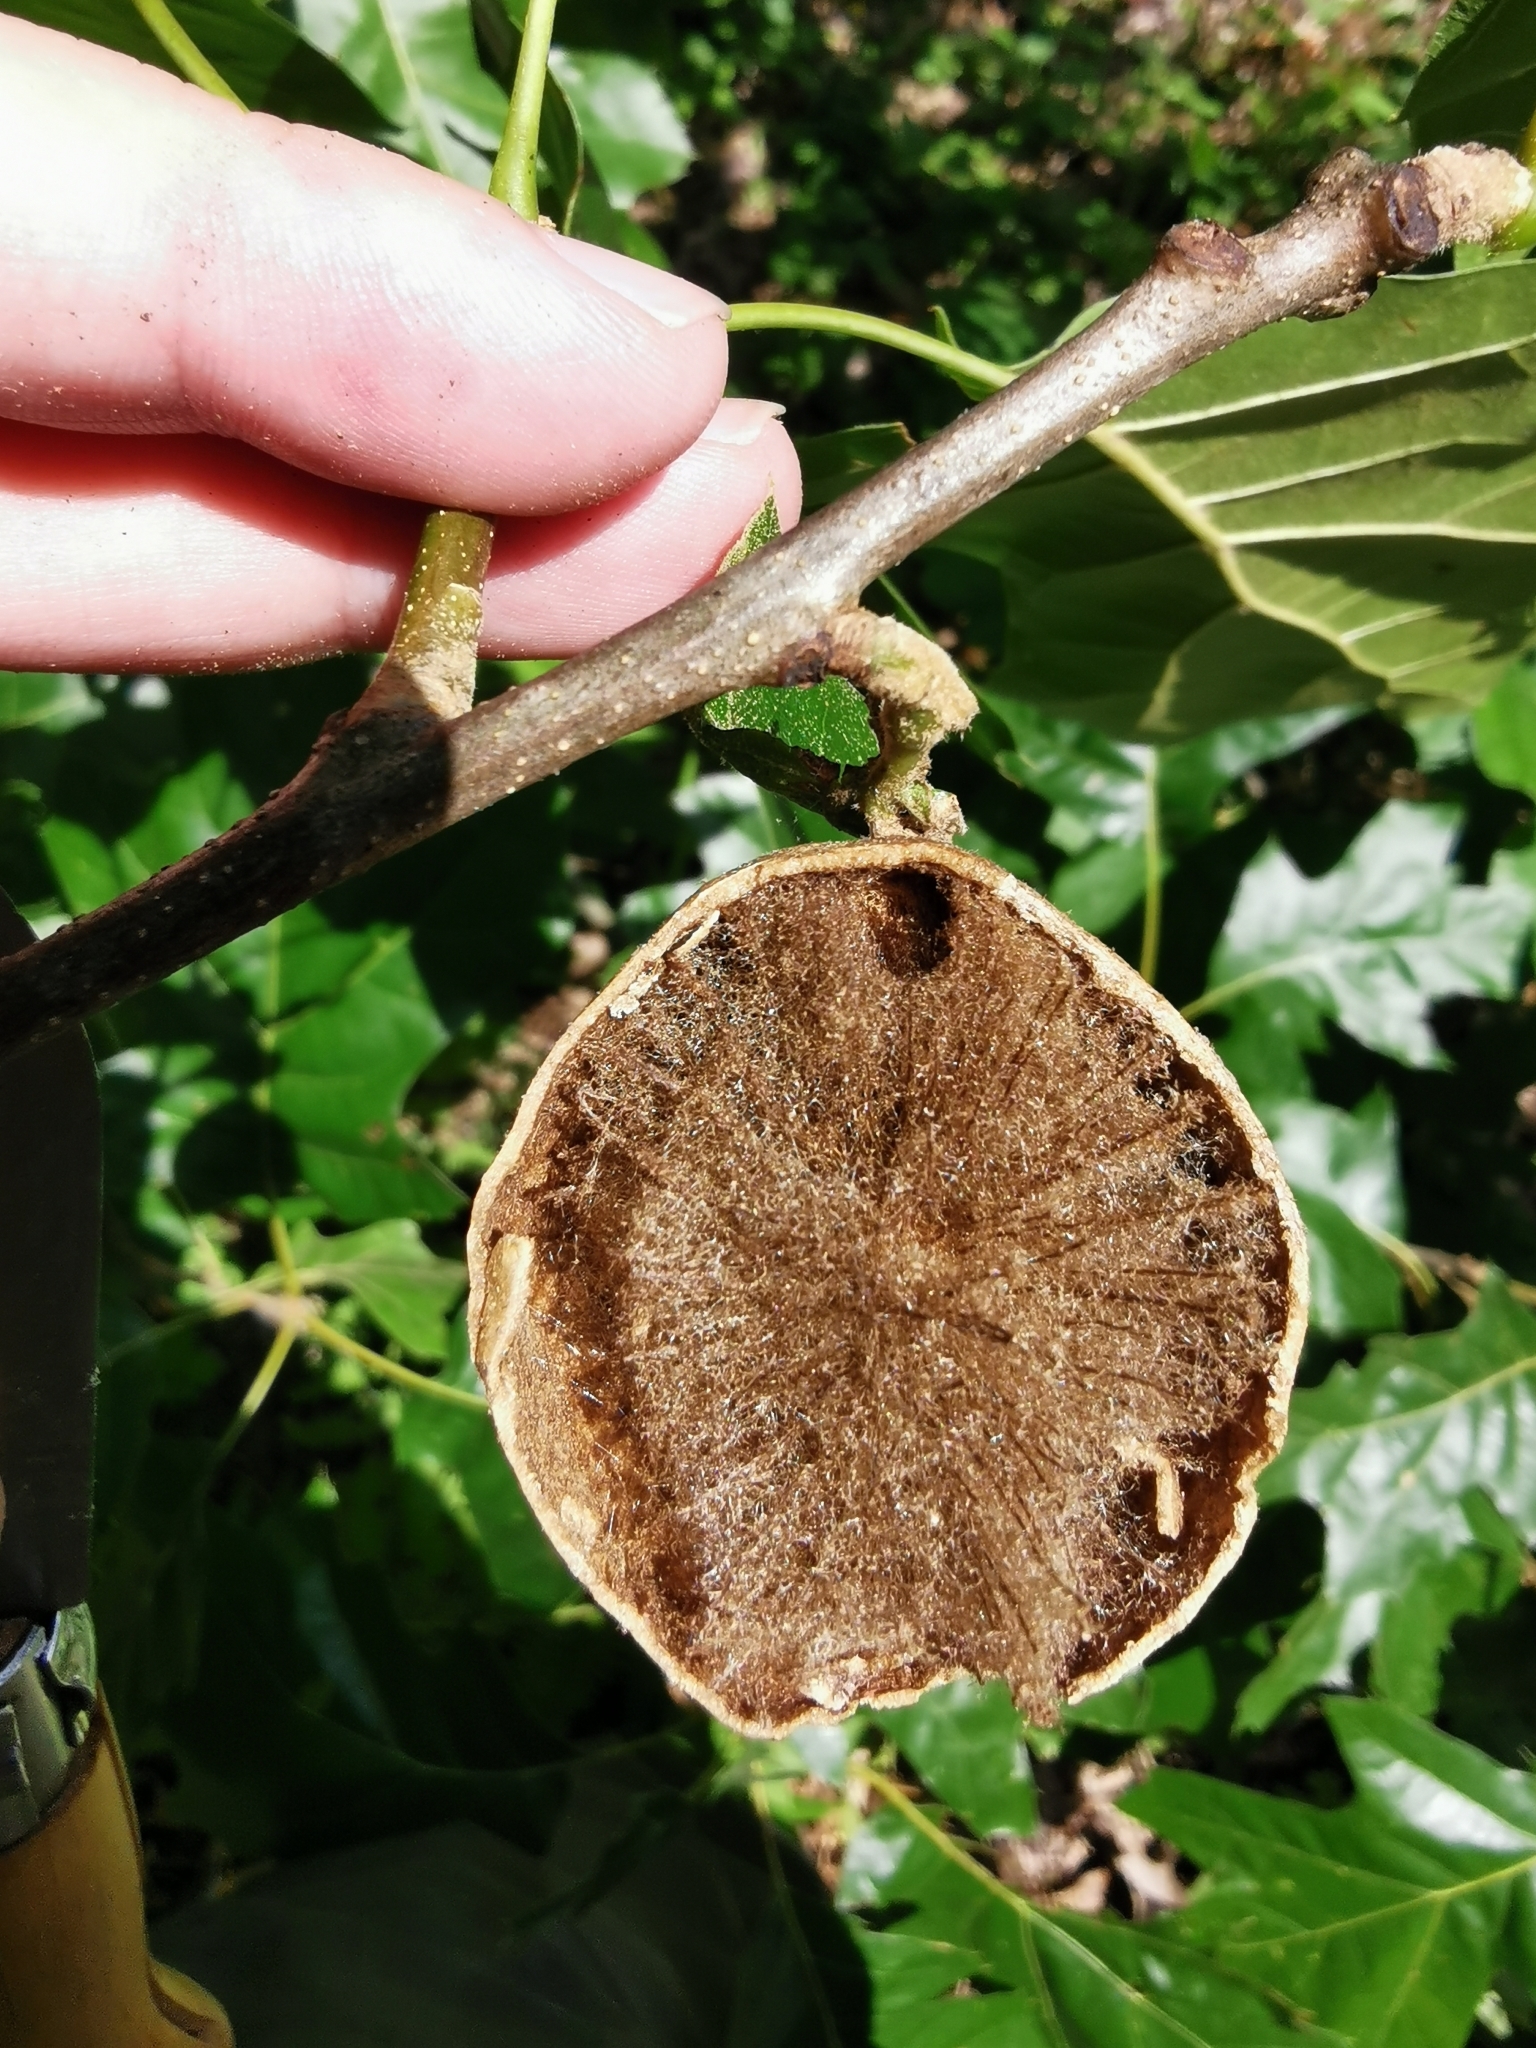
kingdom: Animalia
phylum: Arthropoda
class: Insecta
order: Hymenoptera
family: Cynipidae
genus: Amphibolips
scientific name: Amphibolips
